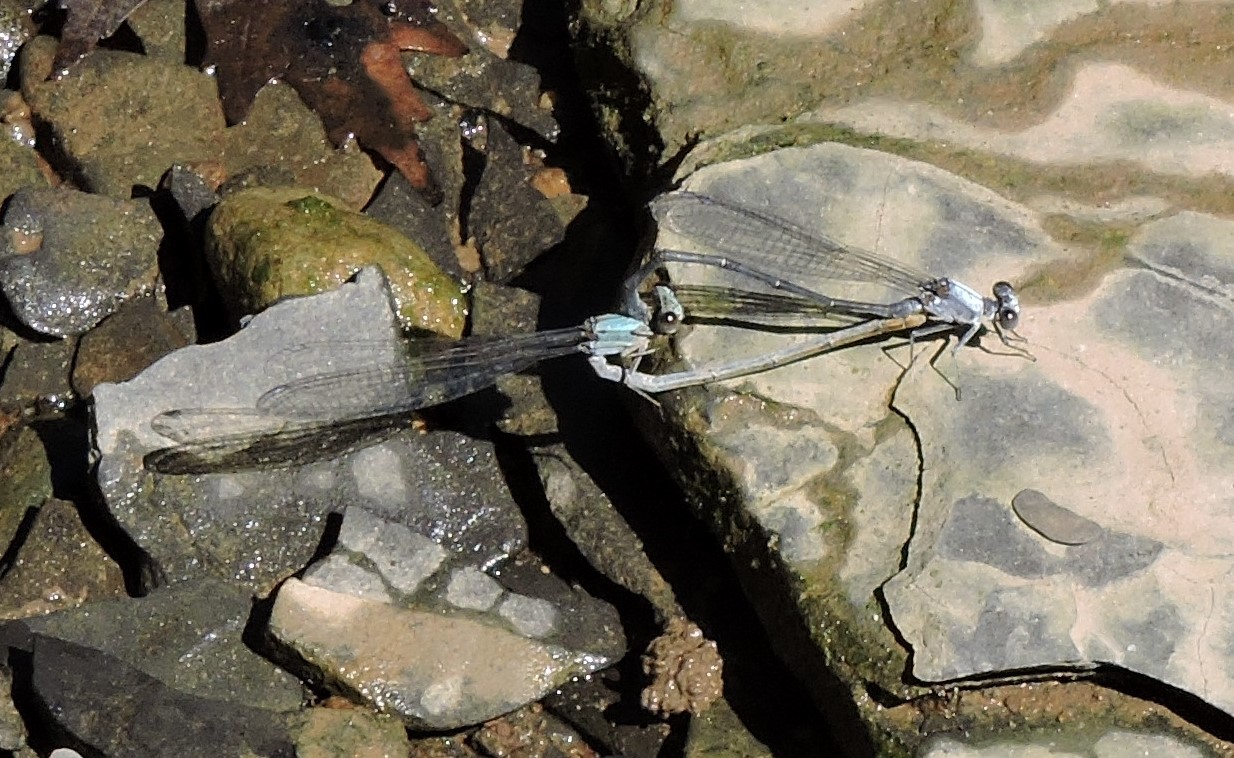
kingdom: Animalia
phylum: Arthropoda
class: Insecta
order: Odonata
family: Coenagrionidae
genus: Argia
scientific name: Argia moesta
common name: Powdered dancer
